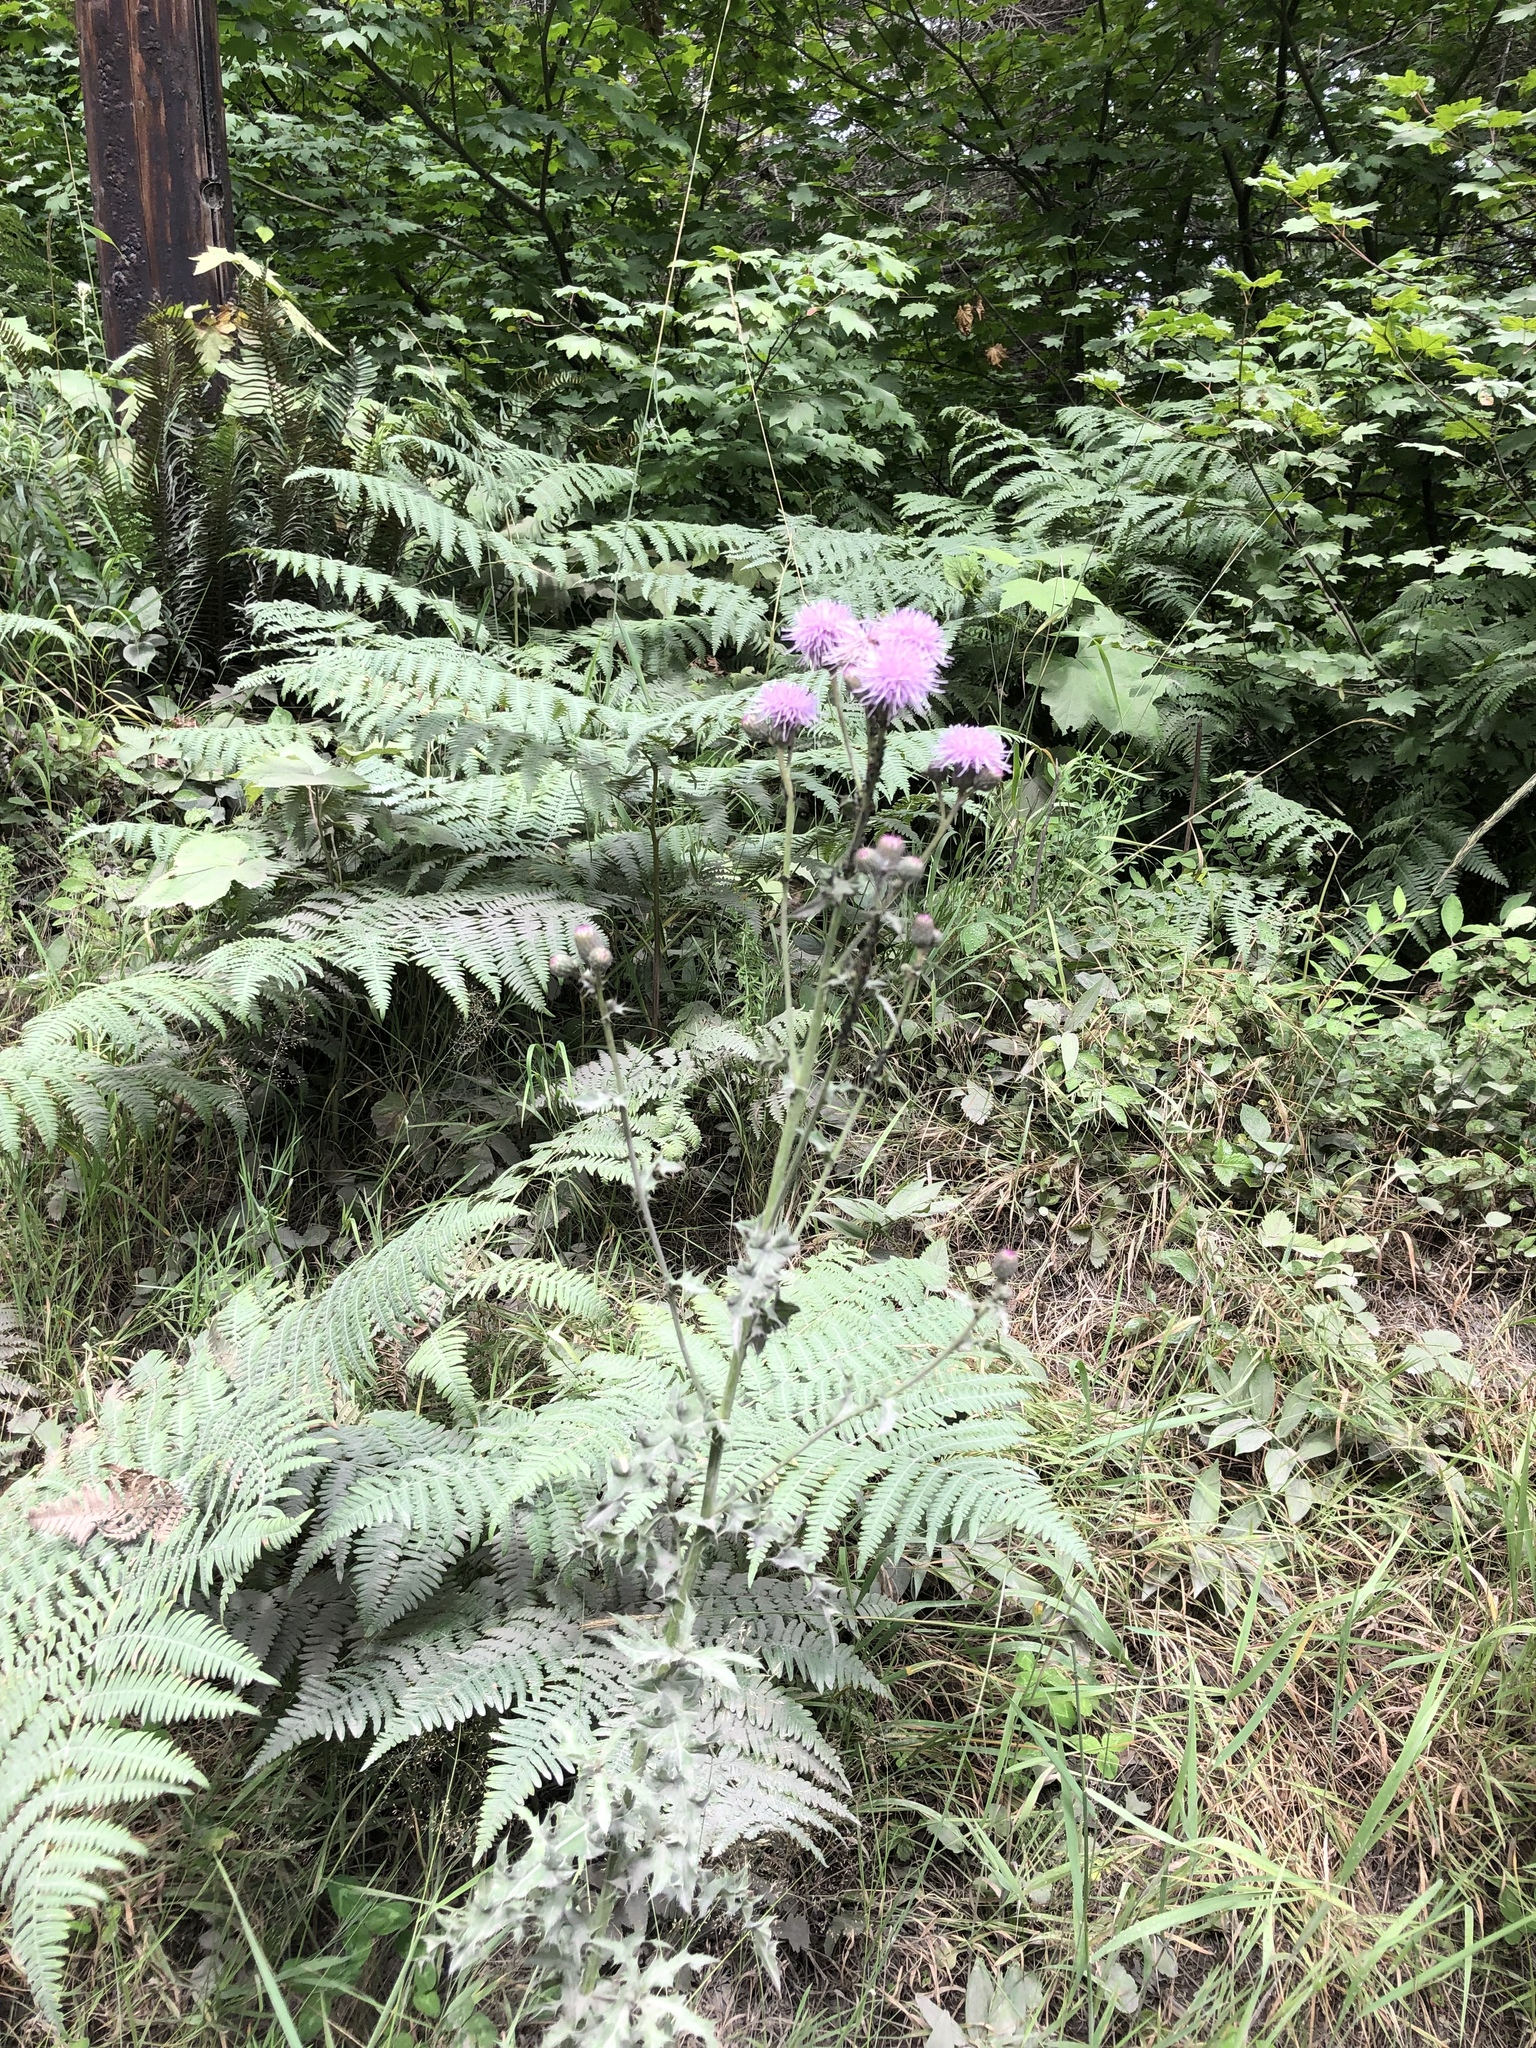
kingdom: Plantae
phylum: Tracheophyta
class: Magnoliopsida
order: Asterales
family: Asteraceae
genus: Cirsium
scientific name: Cirsium arvense
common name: Creeping thistle
